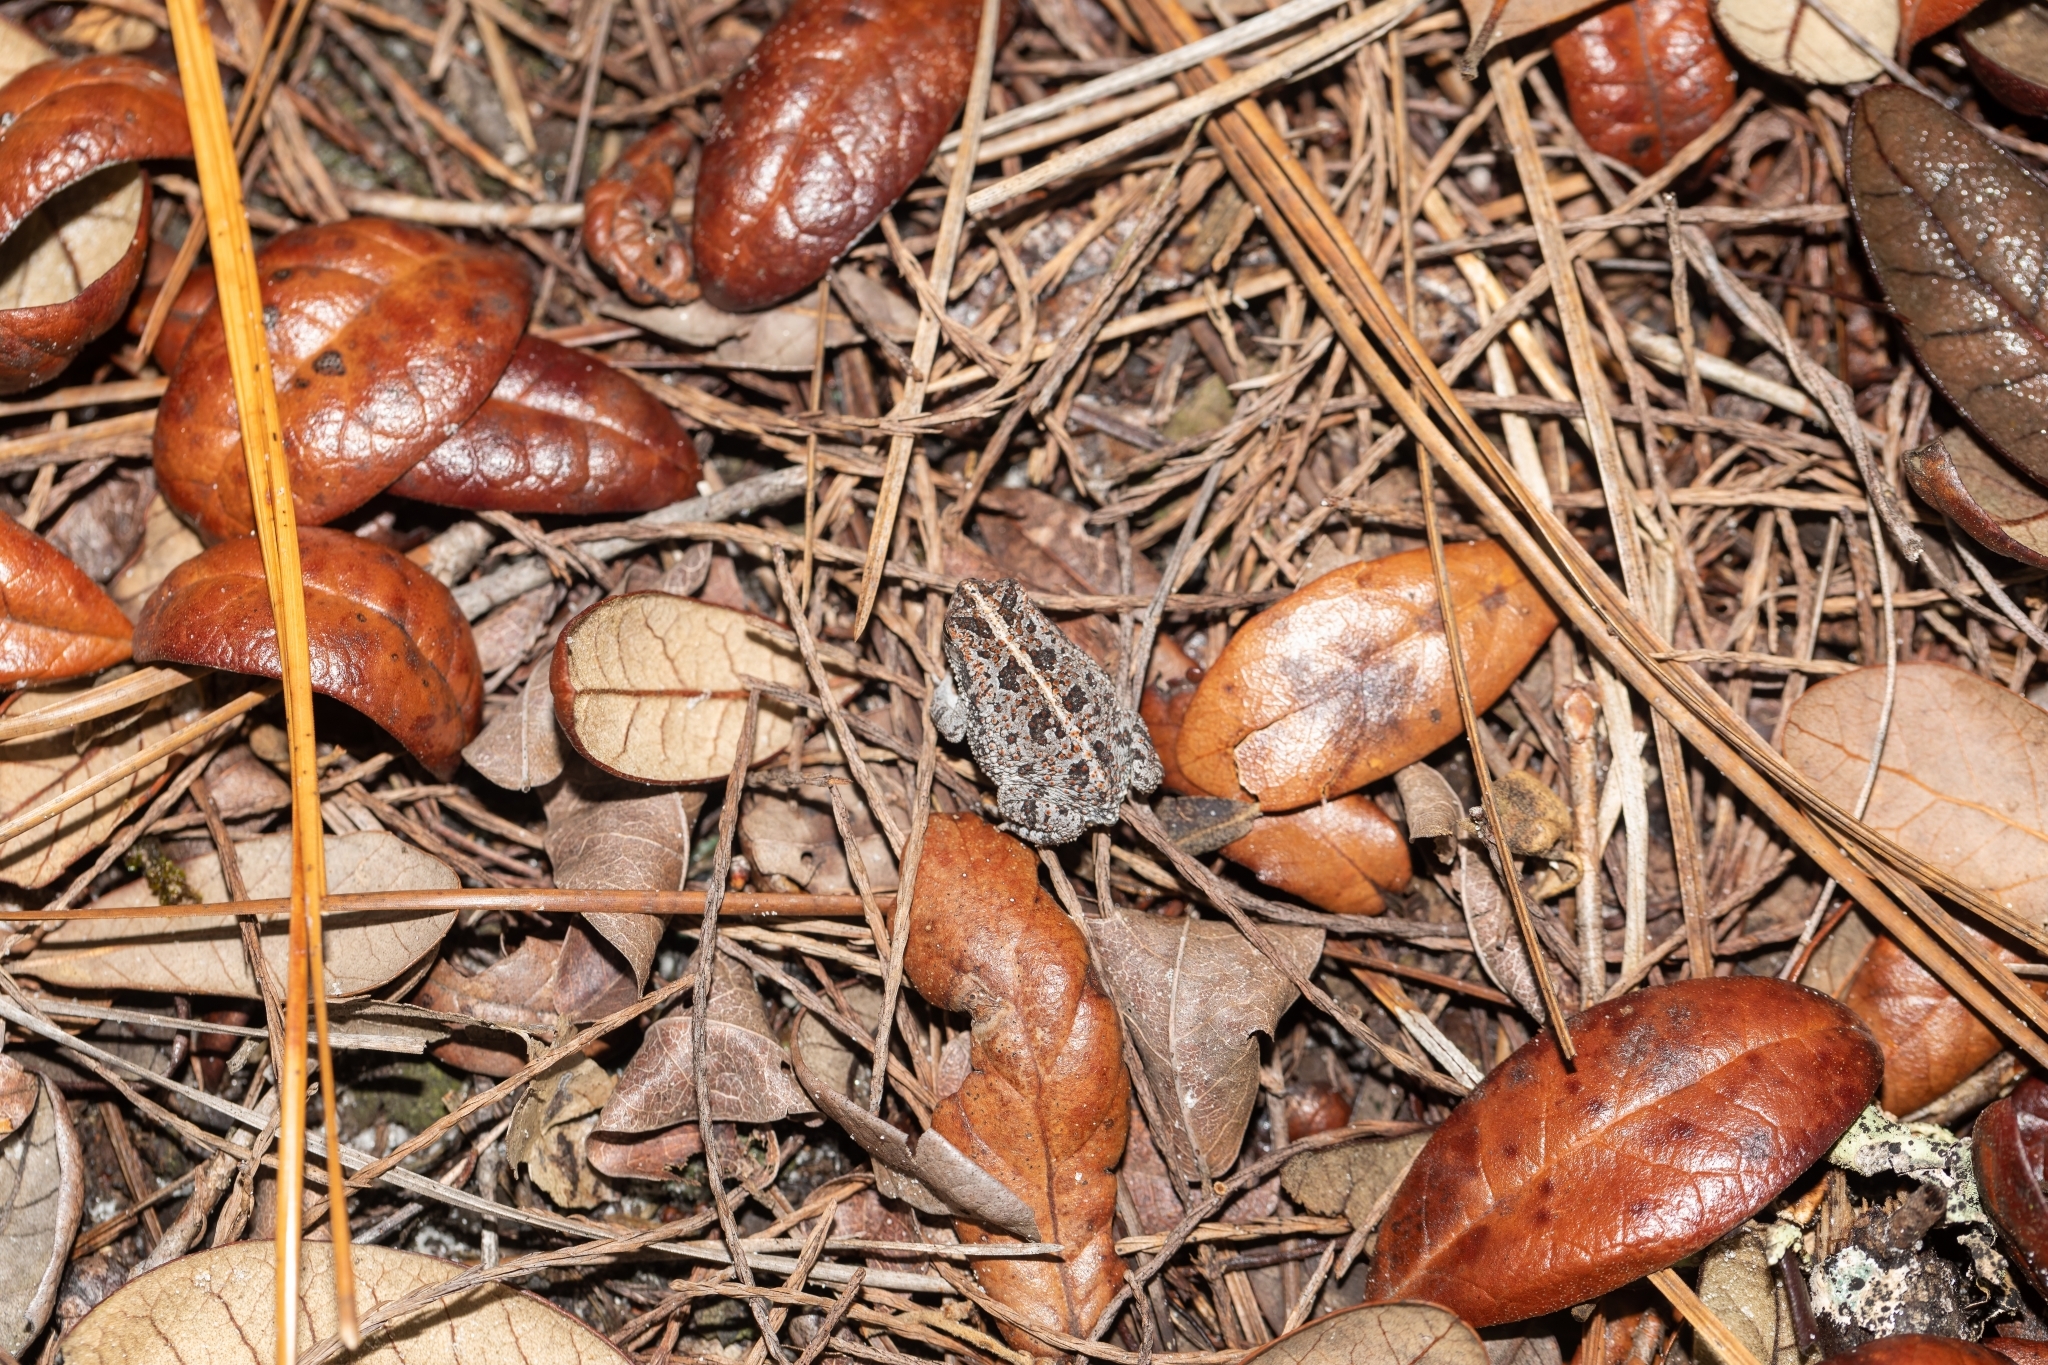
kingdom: Animalia
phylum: Chordata
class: Amphibia
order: Anura
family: Bufonidae
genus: Anaxyrus
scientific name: Anaxyrus quercicus
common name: Oak toad
